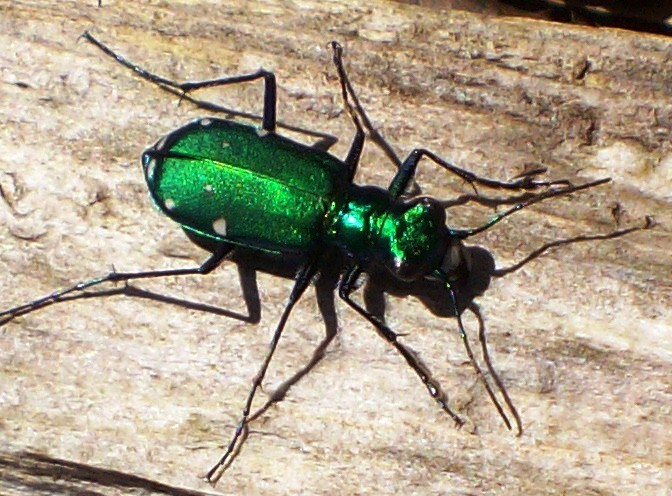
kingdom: Animalia
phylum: Arthropoda
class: Insecta
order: Coleoptera
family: Carabidae
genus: Cicindela
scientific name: Cicindela sexguttata
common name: Six-spotted tiger beetle
